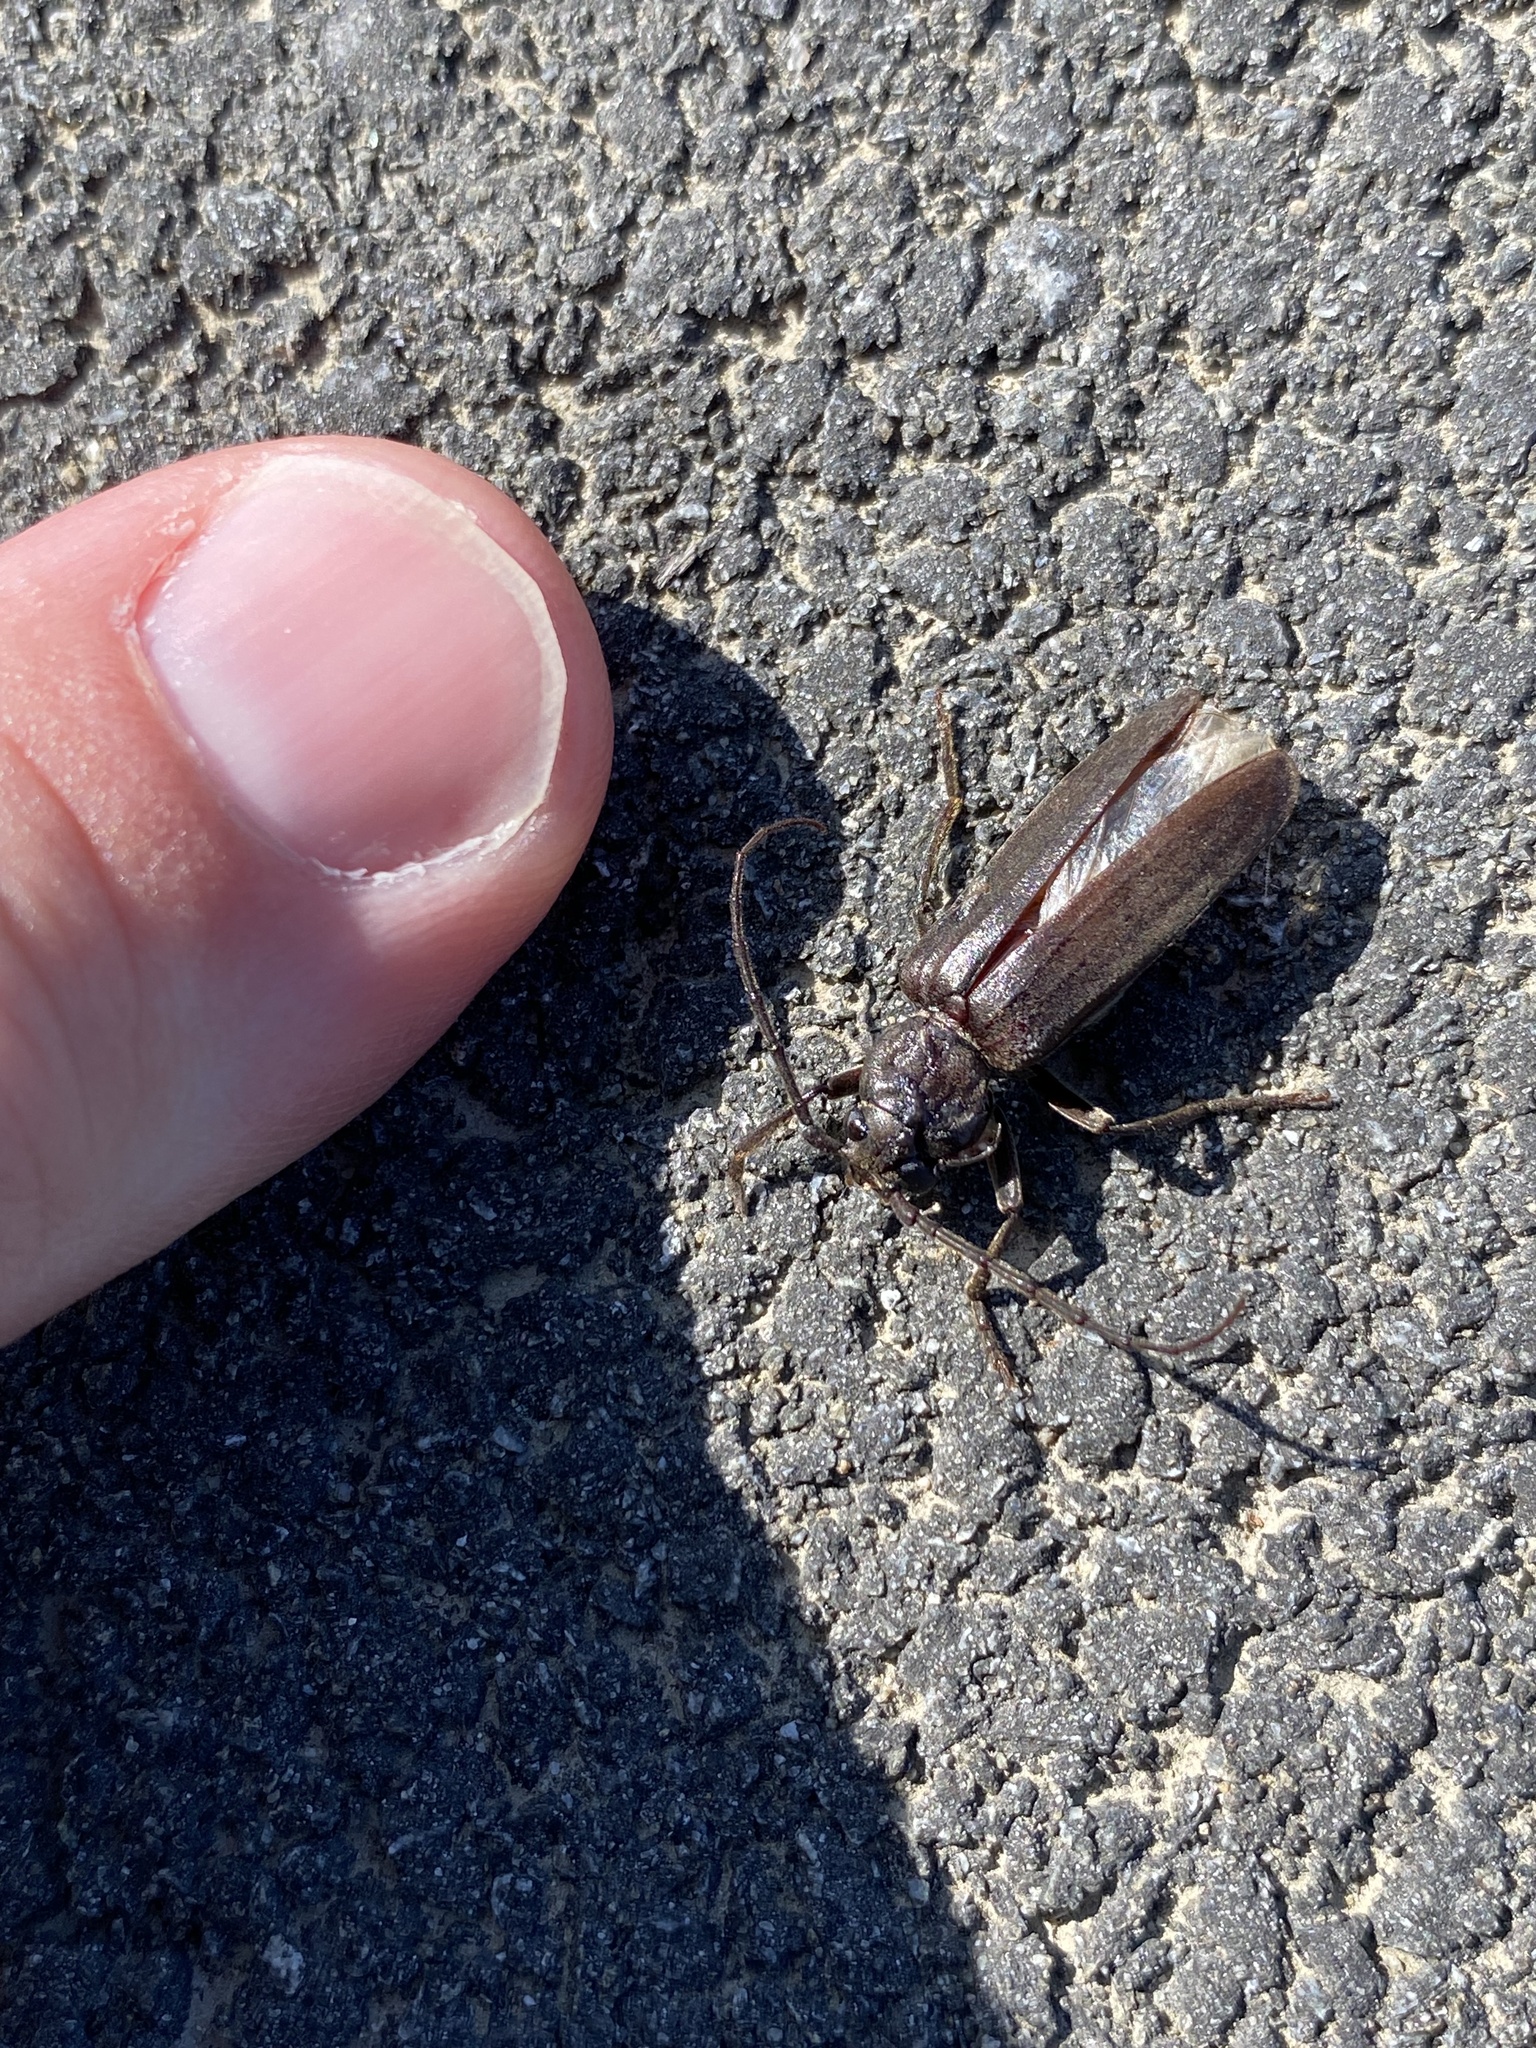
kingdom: Animalia
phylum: Arthropoda
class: Insecta
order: Coleoptera
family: Cerambycidae
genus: Arhopalus
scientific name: Arhopalus ferus
